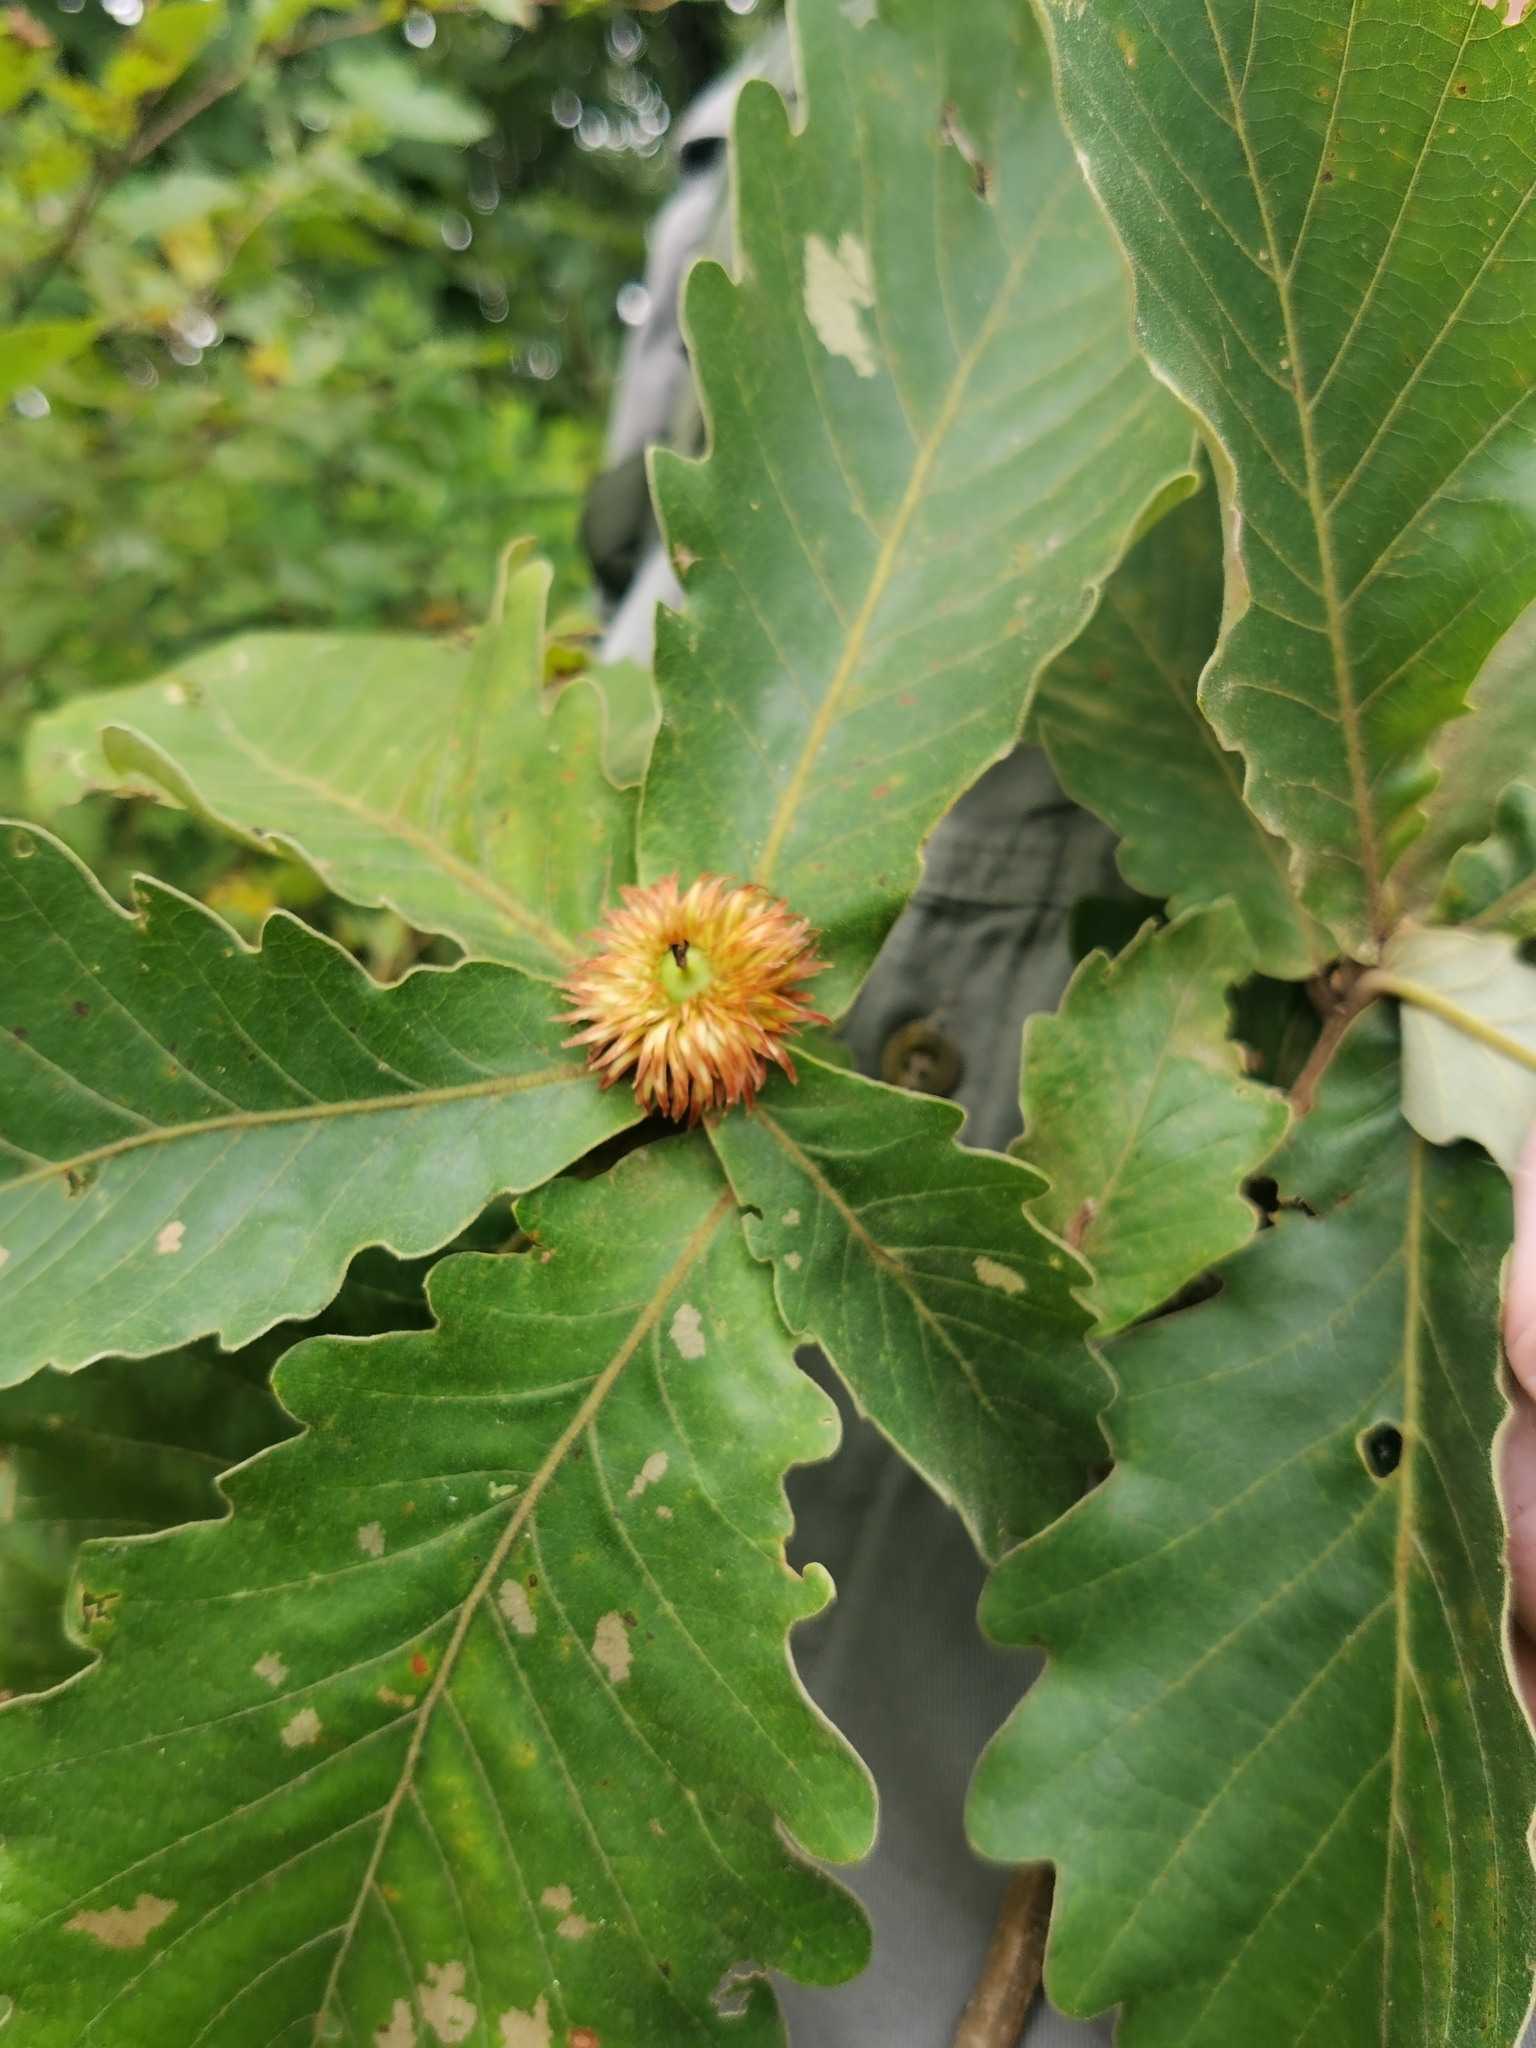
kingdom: Plantae
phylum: Tracheophyta
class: Magnoliopsida
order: Fagales
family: Fagaceae
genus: Quercus
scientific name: Quercus dentata
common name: Daimyo oak
